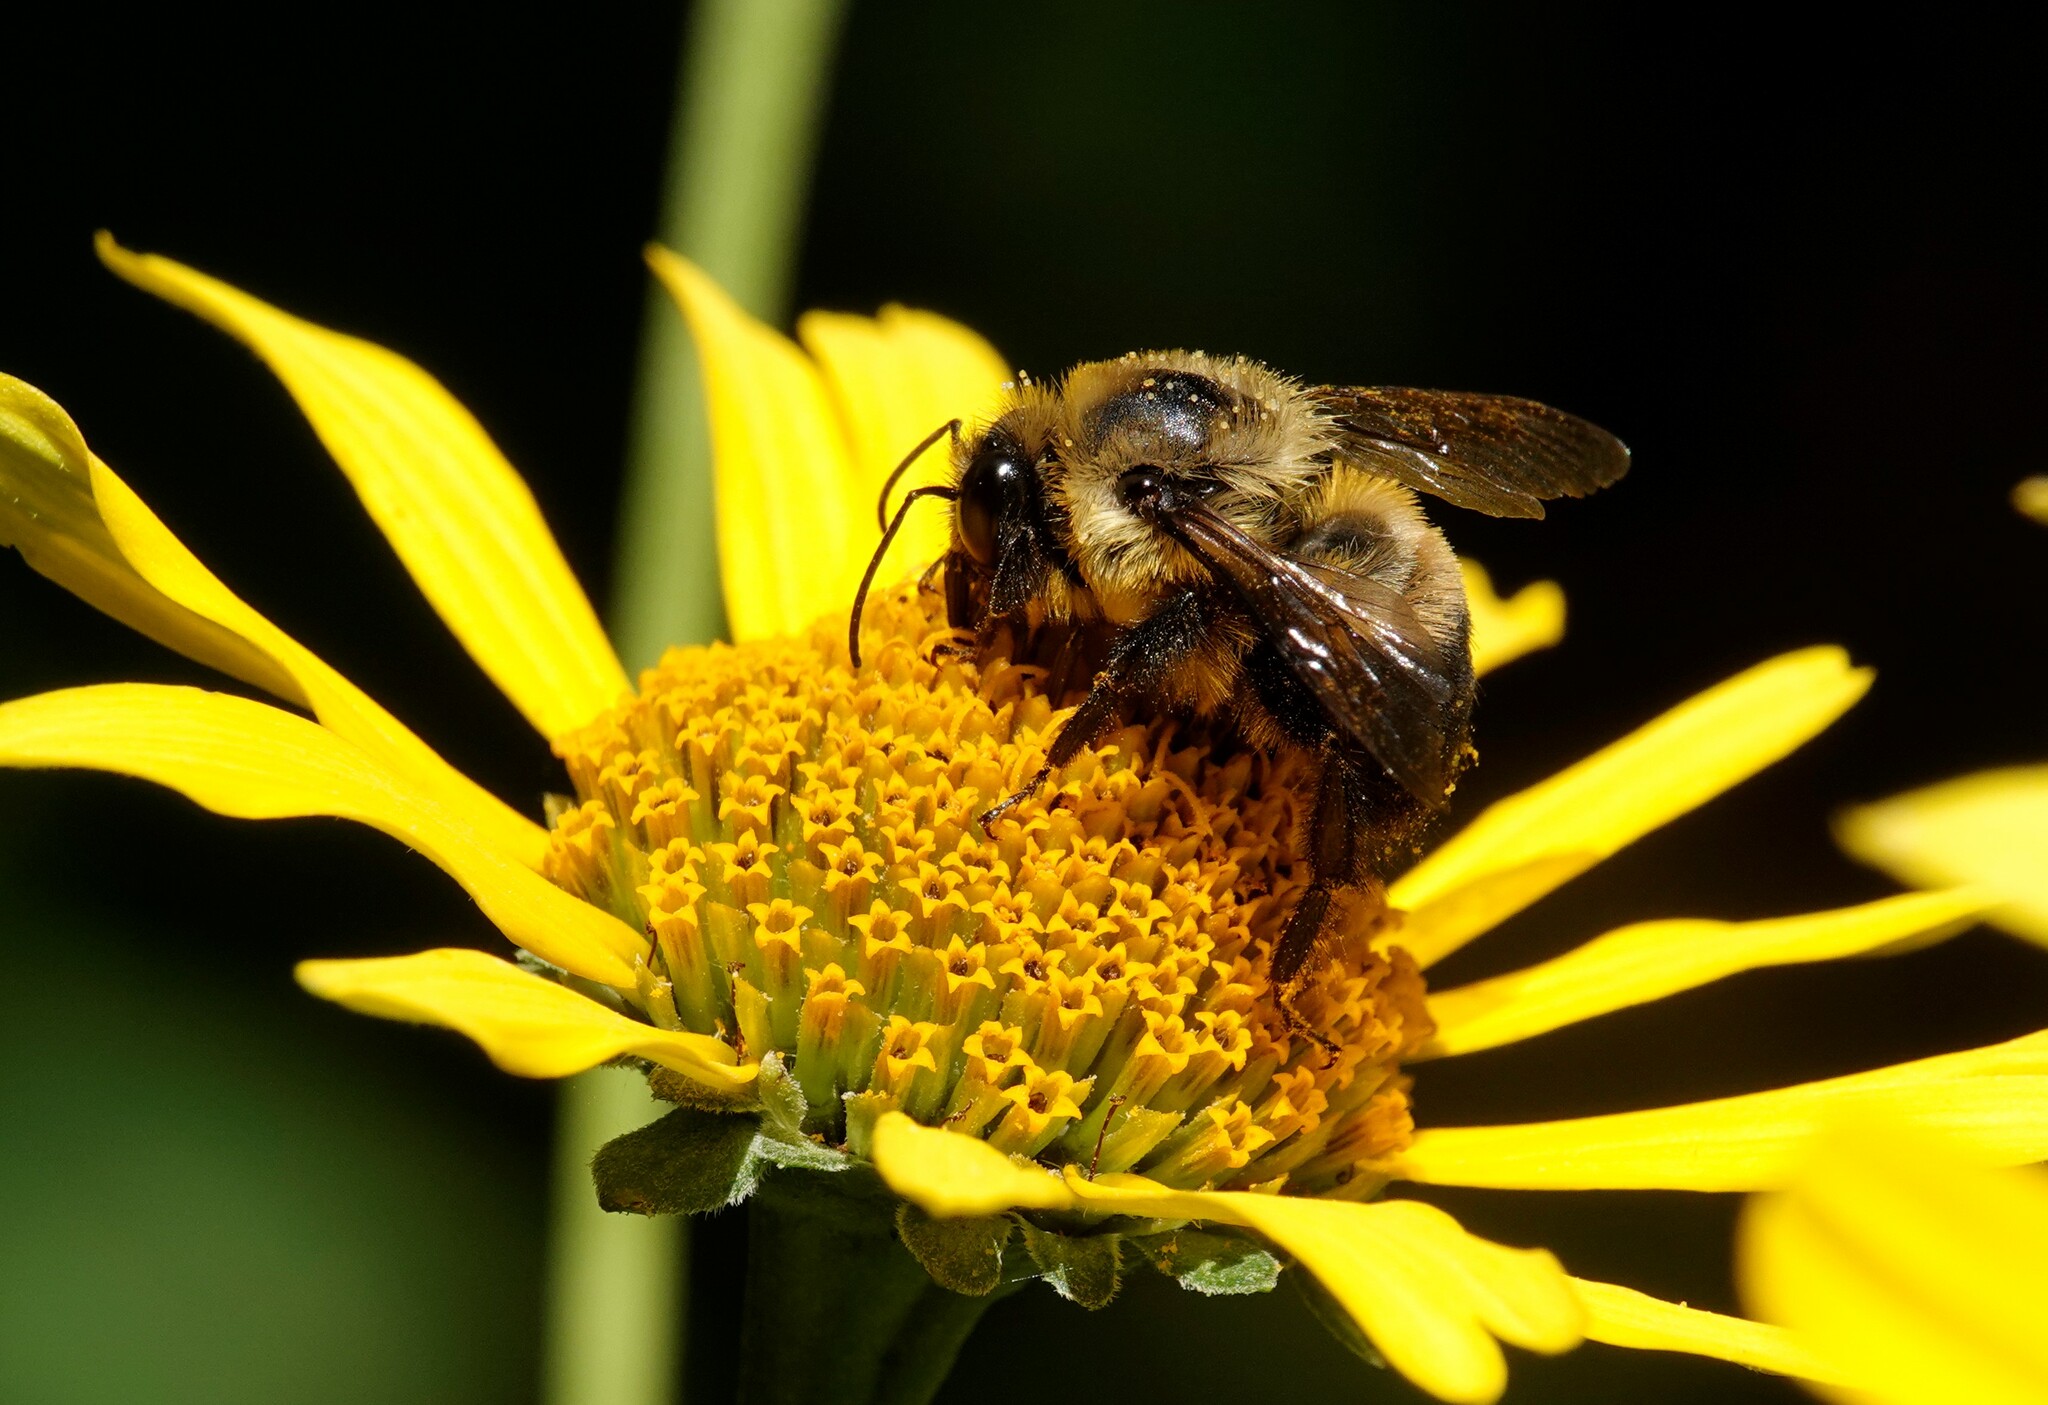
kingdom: Animalia
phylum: Arthropoda
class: Insecta
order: Hymenoptera
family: Apidae
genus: Bombus
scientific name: Bombus griseocollis
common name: Brown-belted bumble bee
